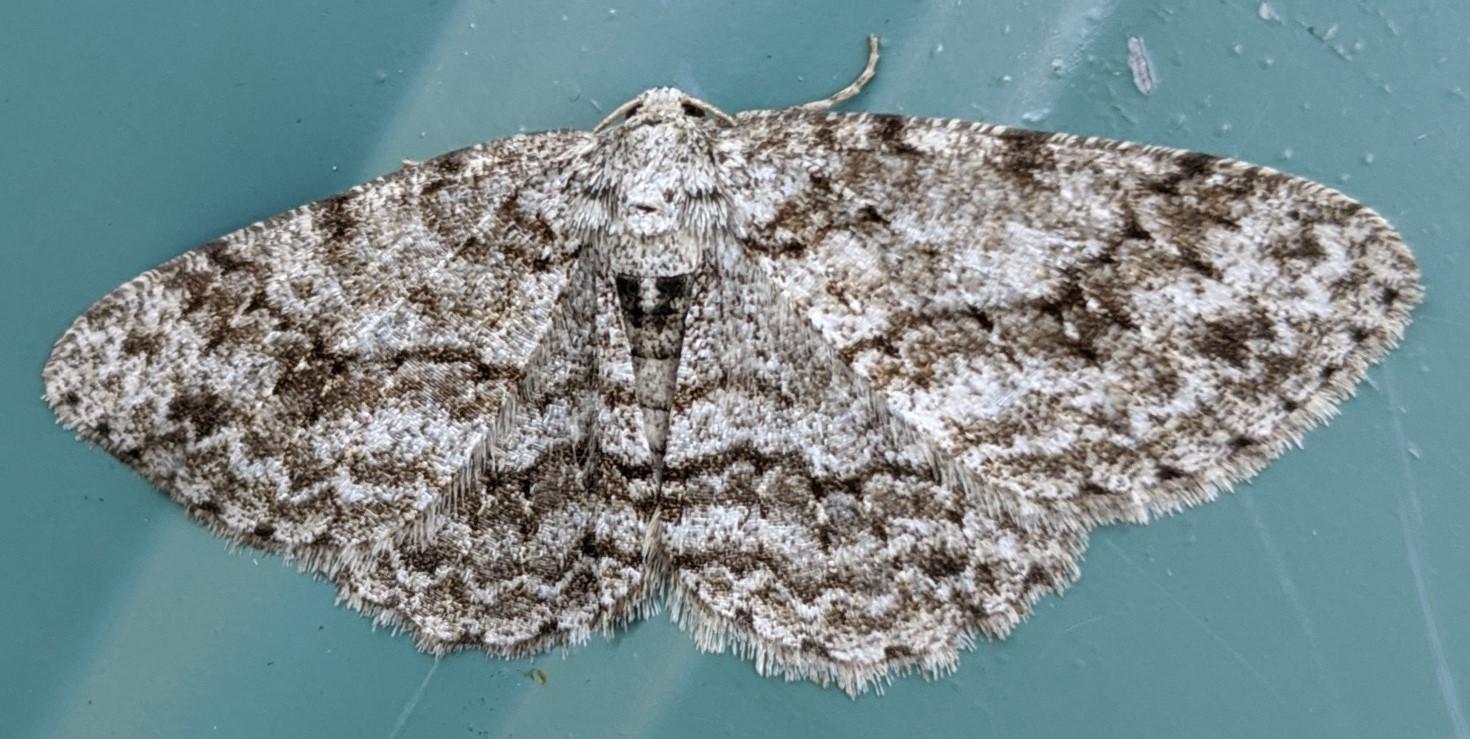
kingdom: Animalia
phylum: Arthropoda
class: Insecta
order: Lepidoptera
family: Geometridae
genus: Ectropis
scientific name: Ectropis crepuscularia
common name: Engrailed
